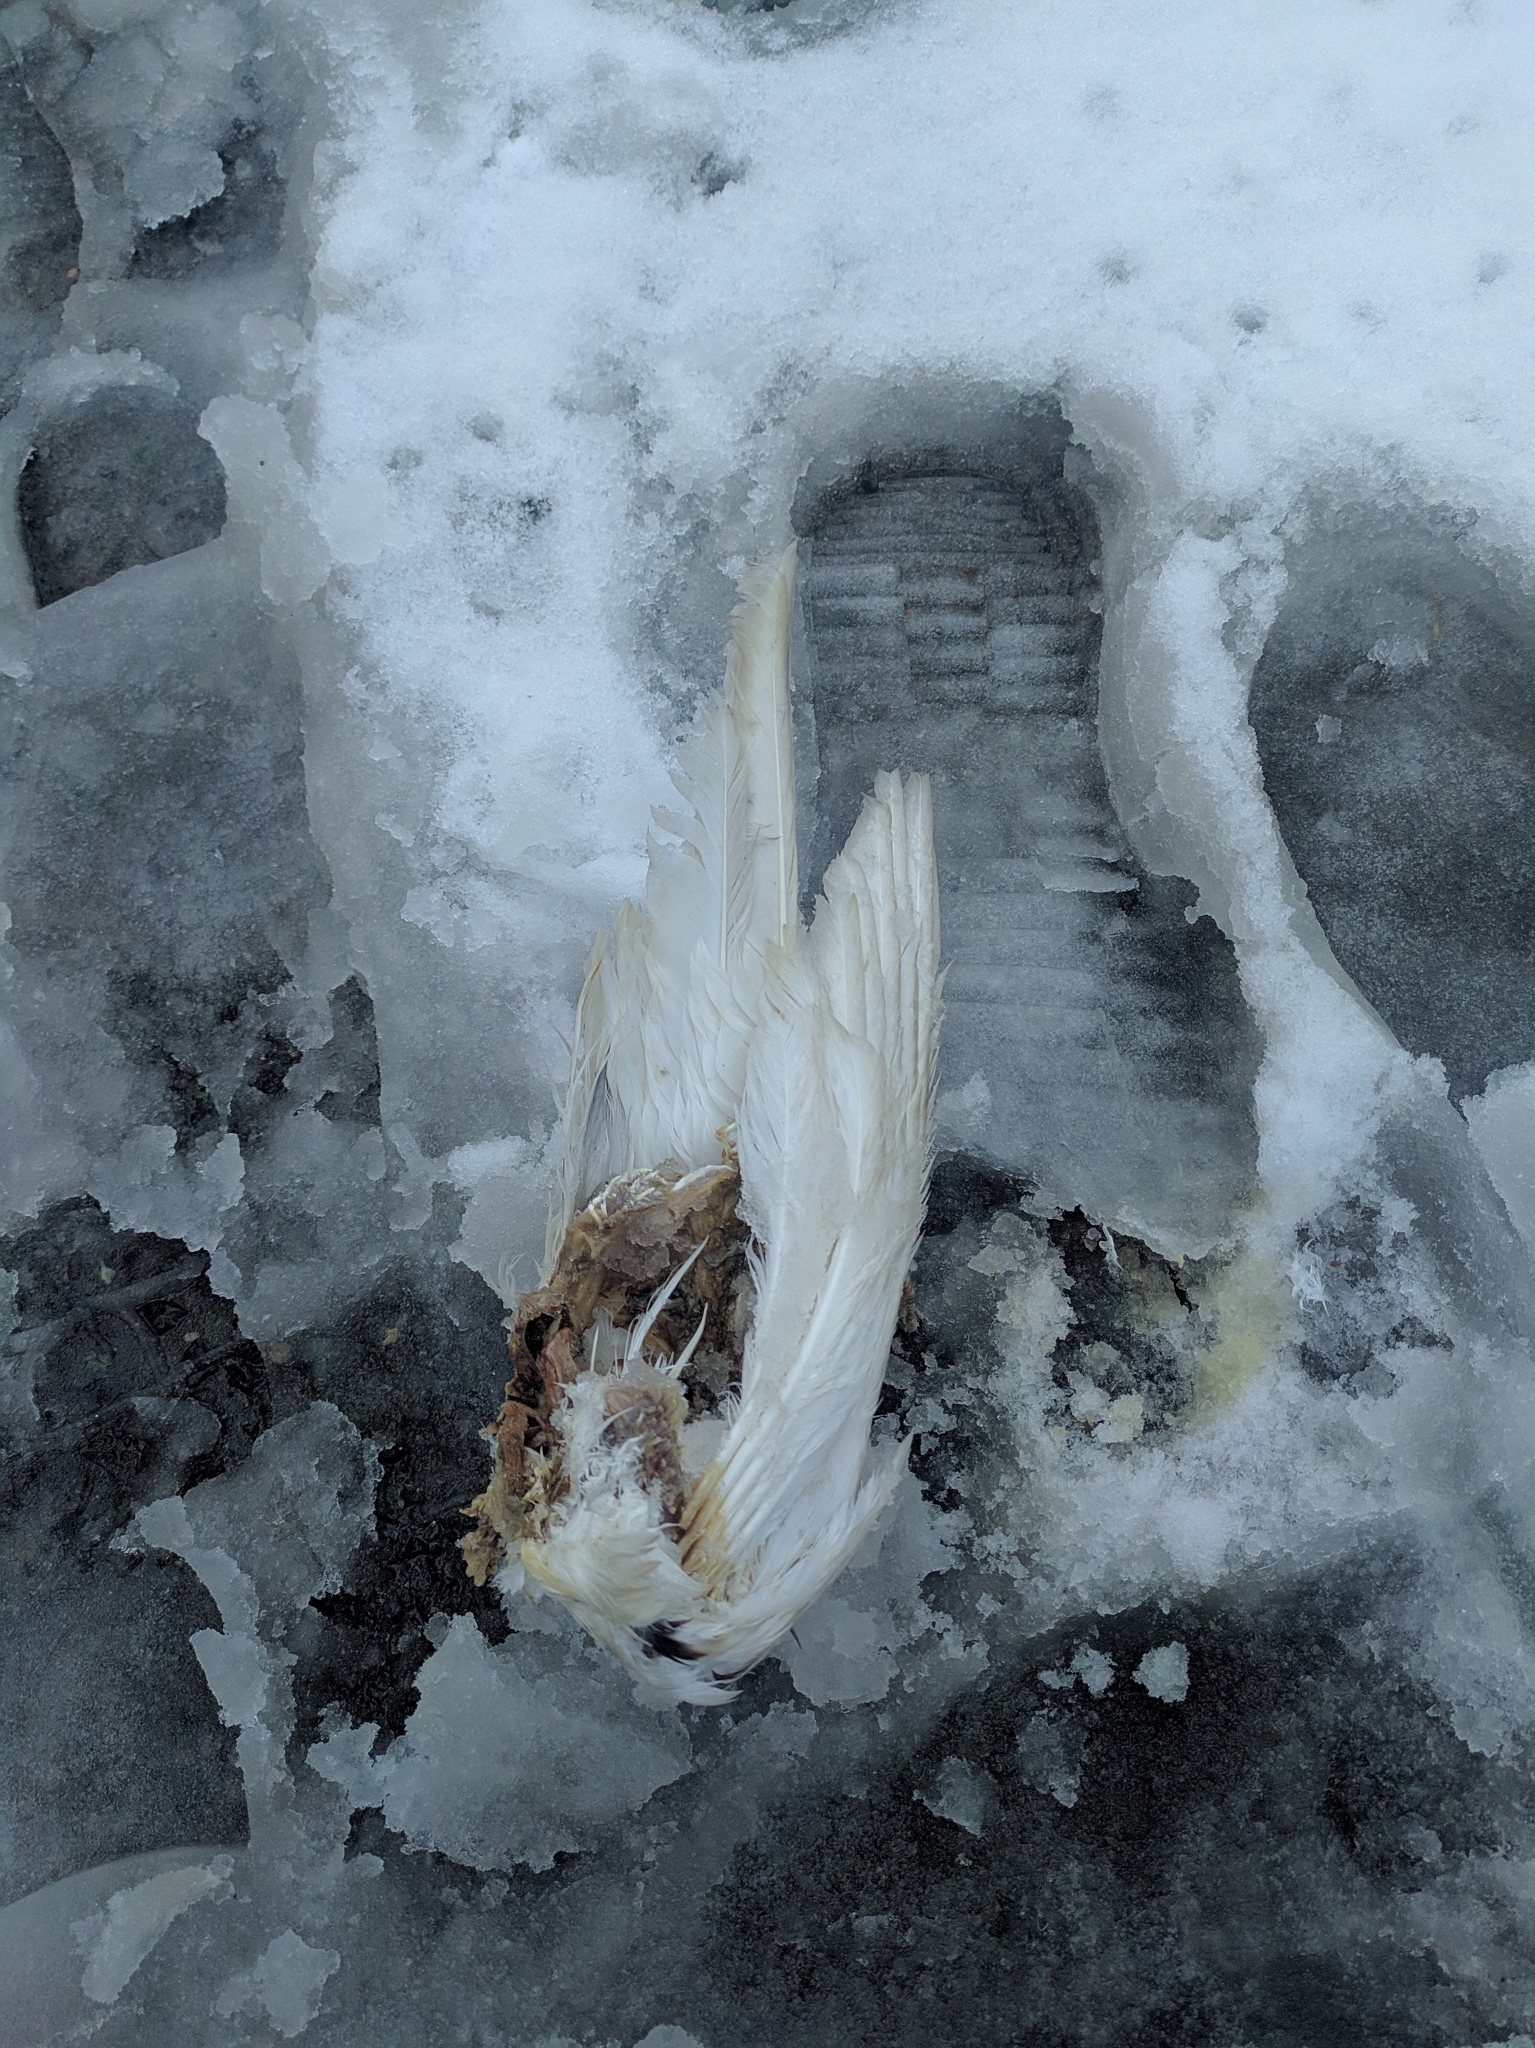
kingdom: Animalia
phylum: Chordata
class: Aves
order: Columbiformes
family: Columbidae
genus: Columba
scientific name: Columba livia
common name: Rock pigeon
